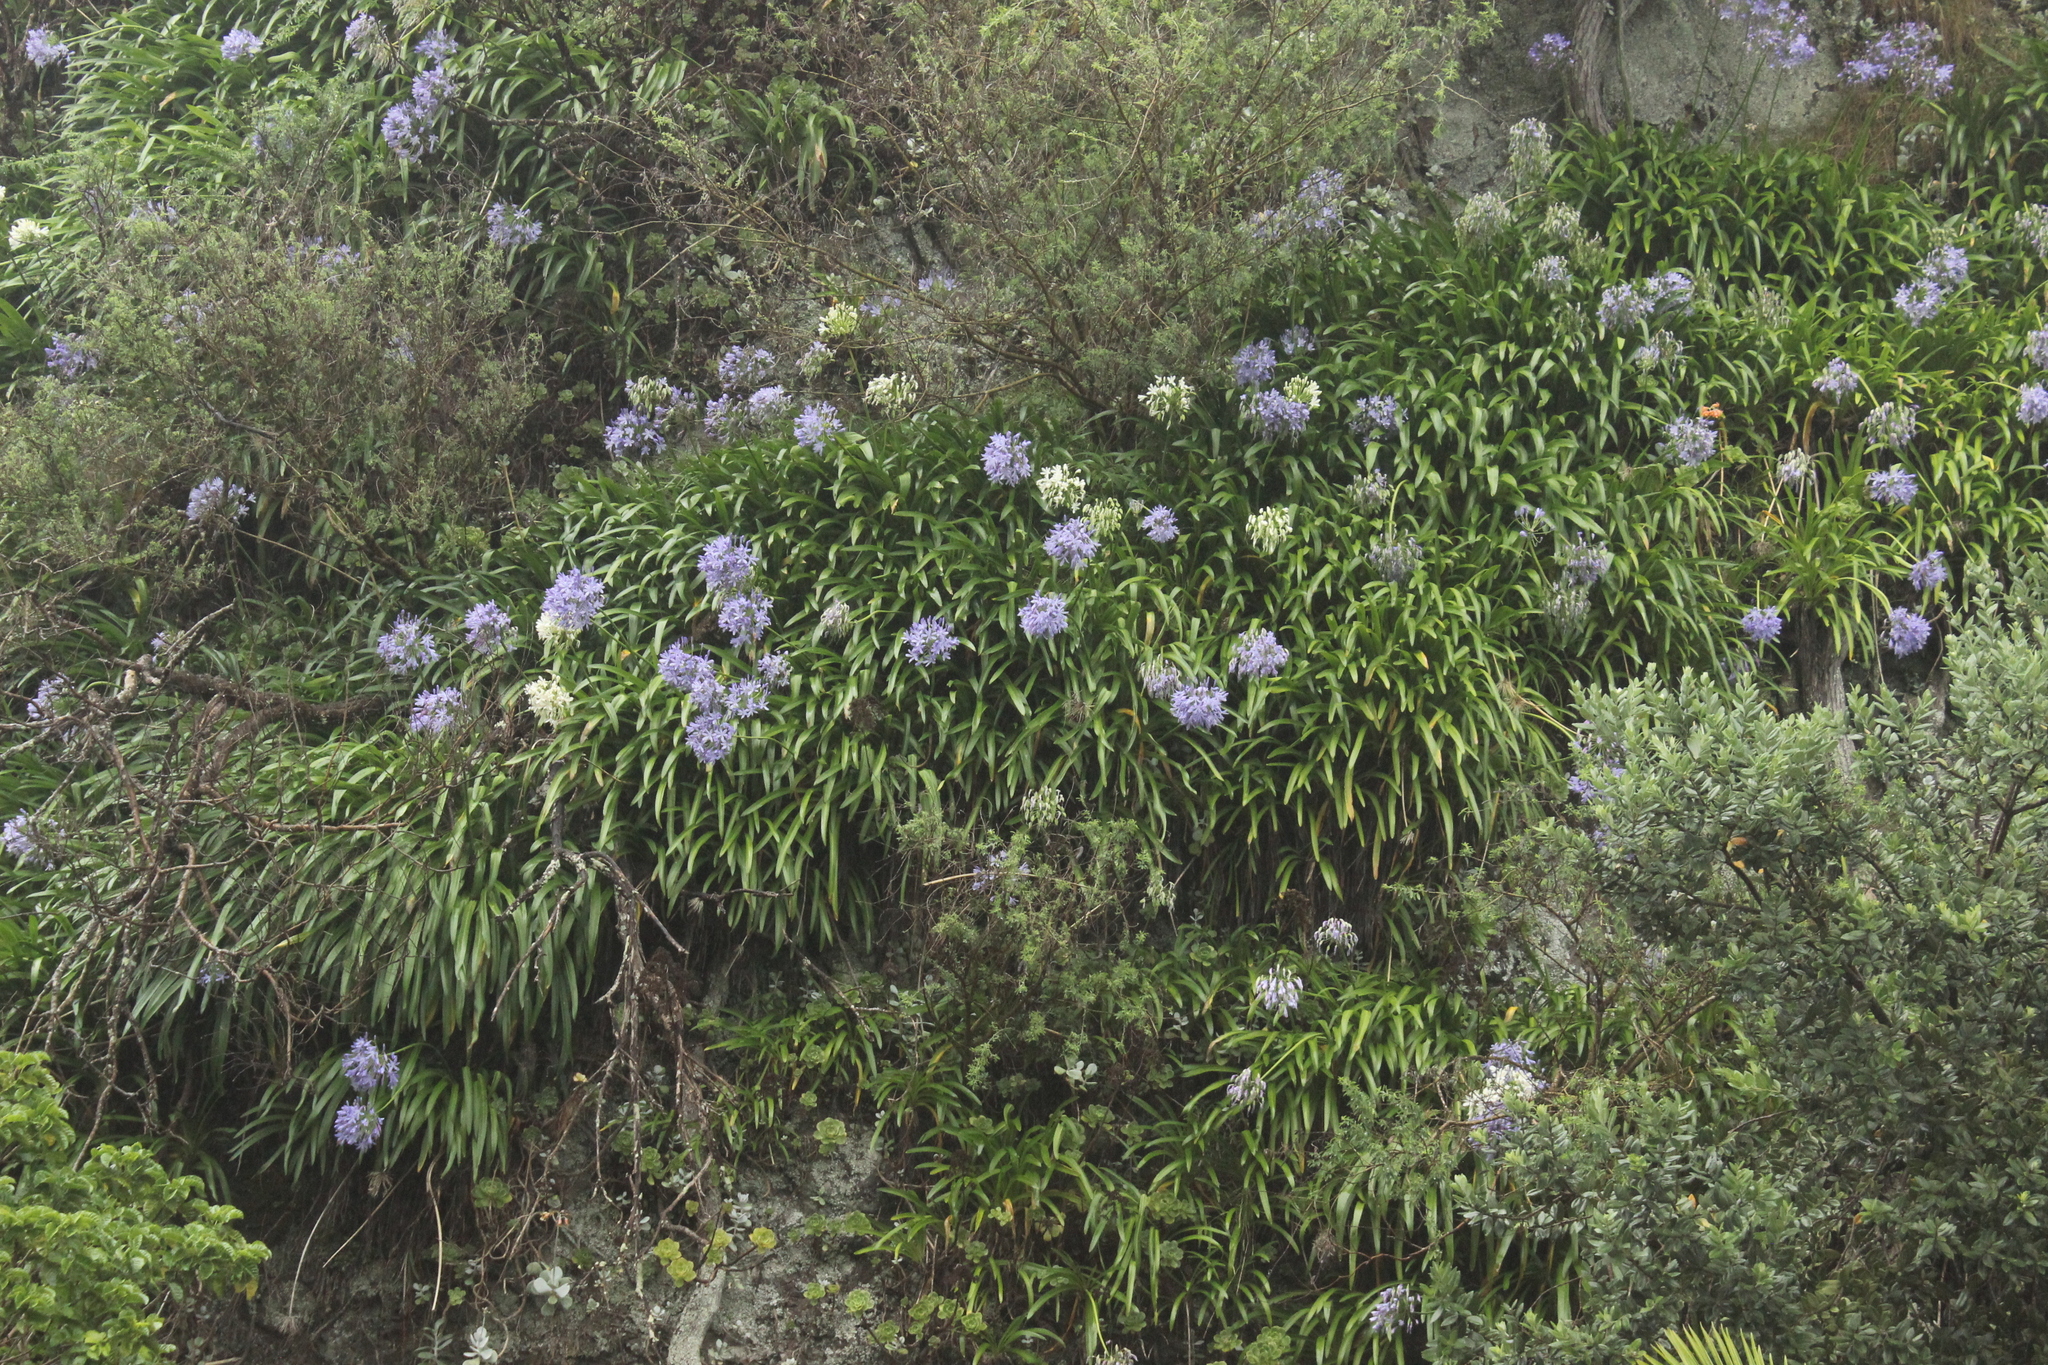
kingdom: Plantae
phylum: Tracheophyta
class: Liliopsida
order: Asparagales
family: Amaryllidaceae
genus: Agapanthus
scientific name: Agapanthus praecox
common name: African-lily
